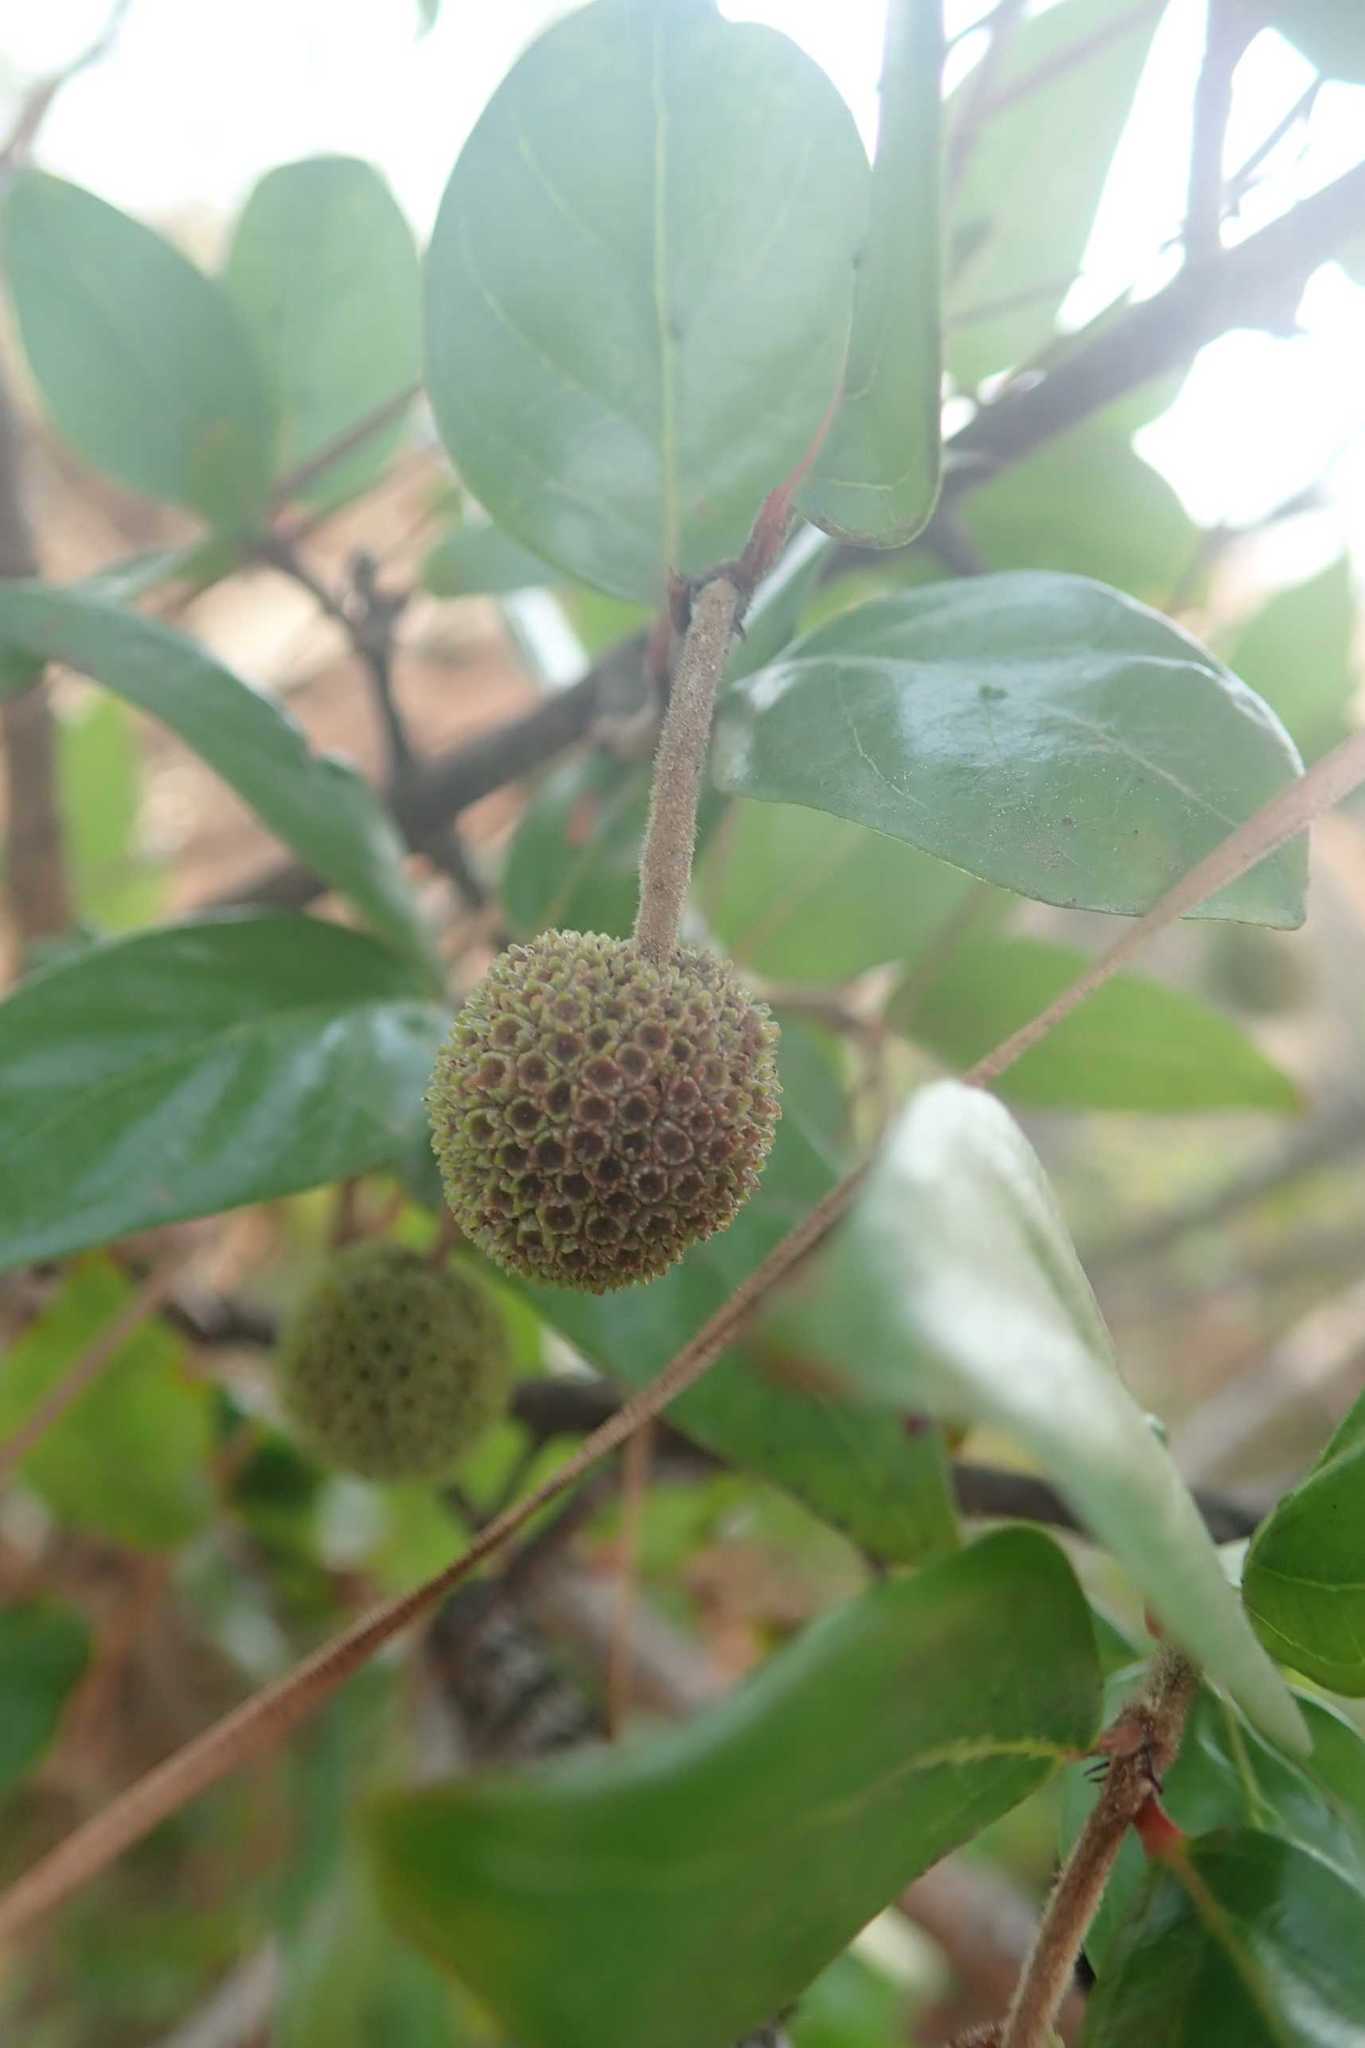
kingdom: Plantae
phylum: Tracheophyta
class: Magnoliopsida
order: Gentianales
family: Rubiaceae
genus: Cephalanthus
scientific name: Cephalanthus natalensis
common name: Strawberry bush
